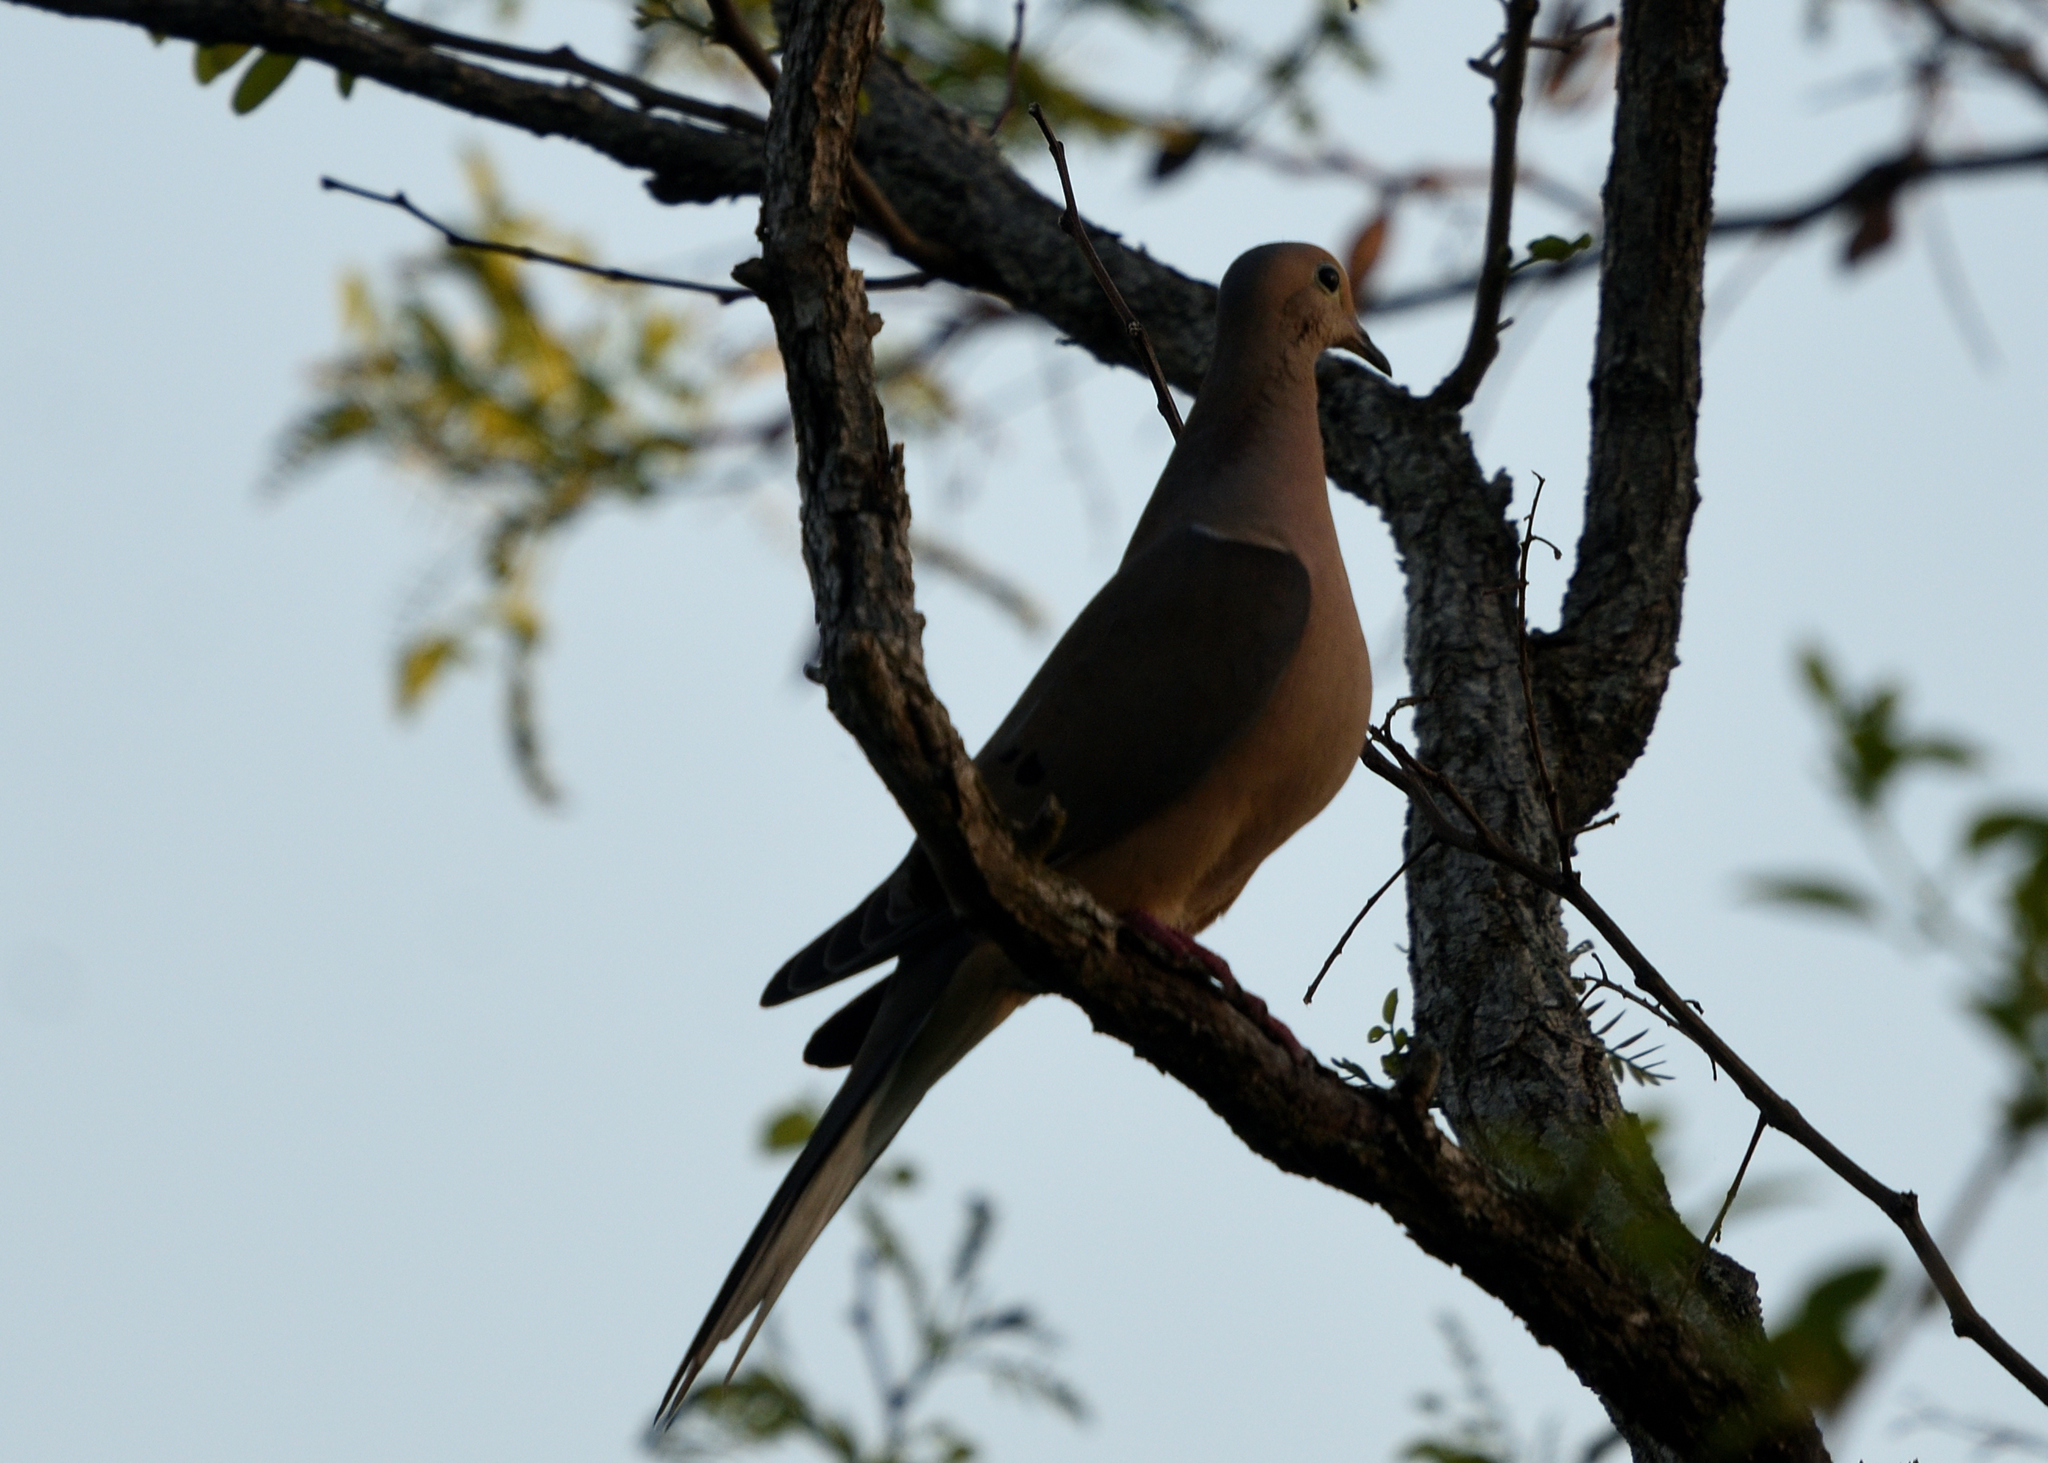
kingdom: Animalia
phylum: Chordata
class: Aves
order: Columbiformes
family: Columbidae
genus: Zenaida
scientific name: Zenaida macroura
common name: Mourning dove
